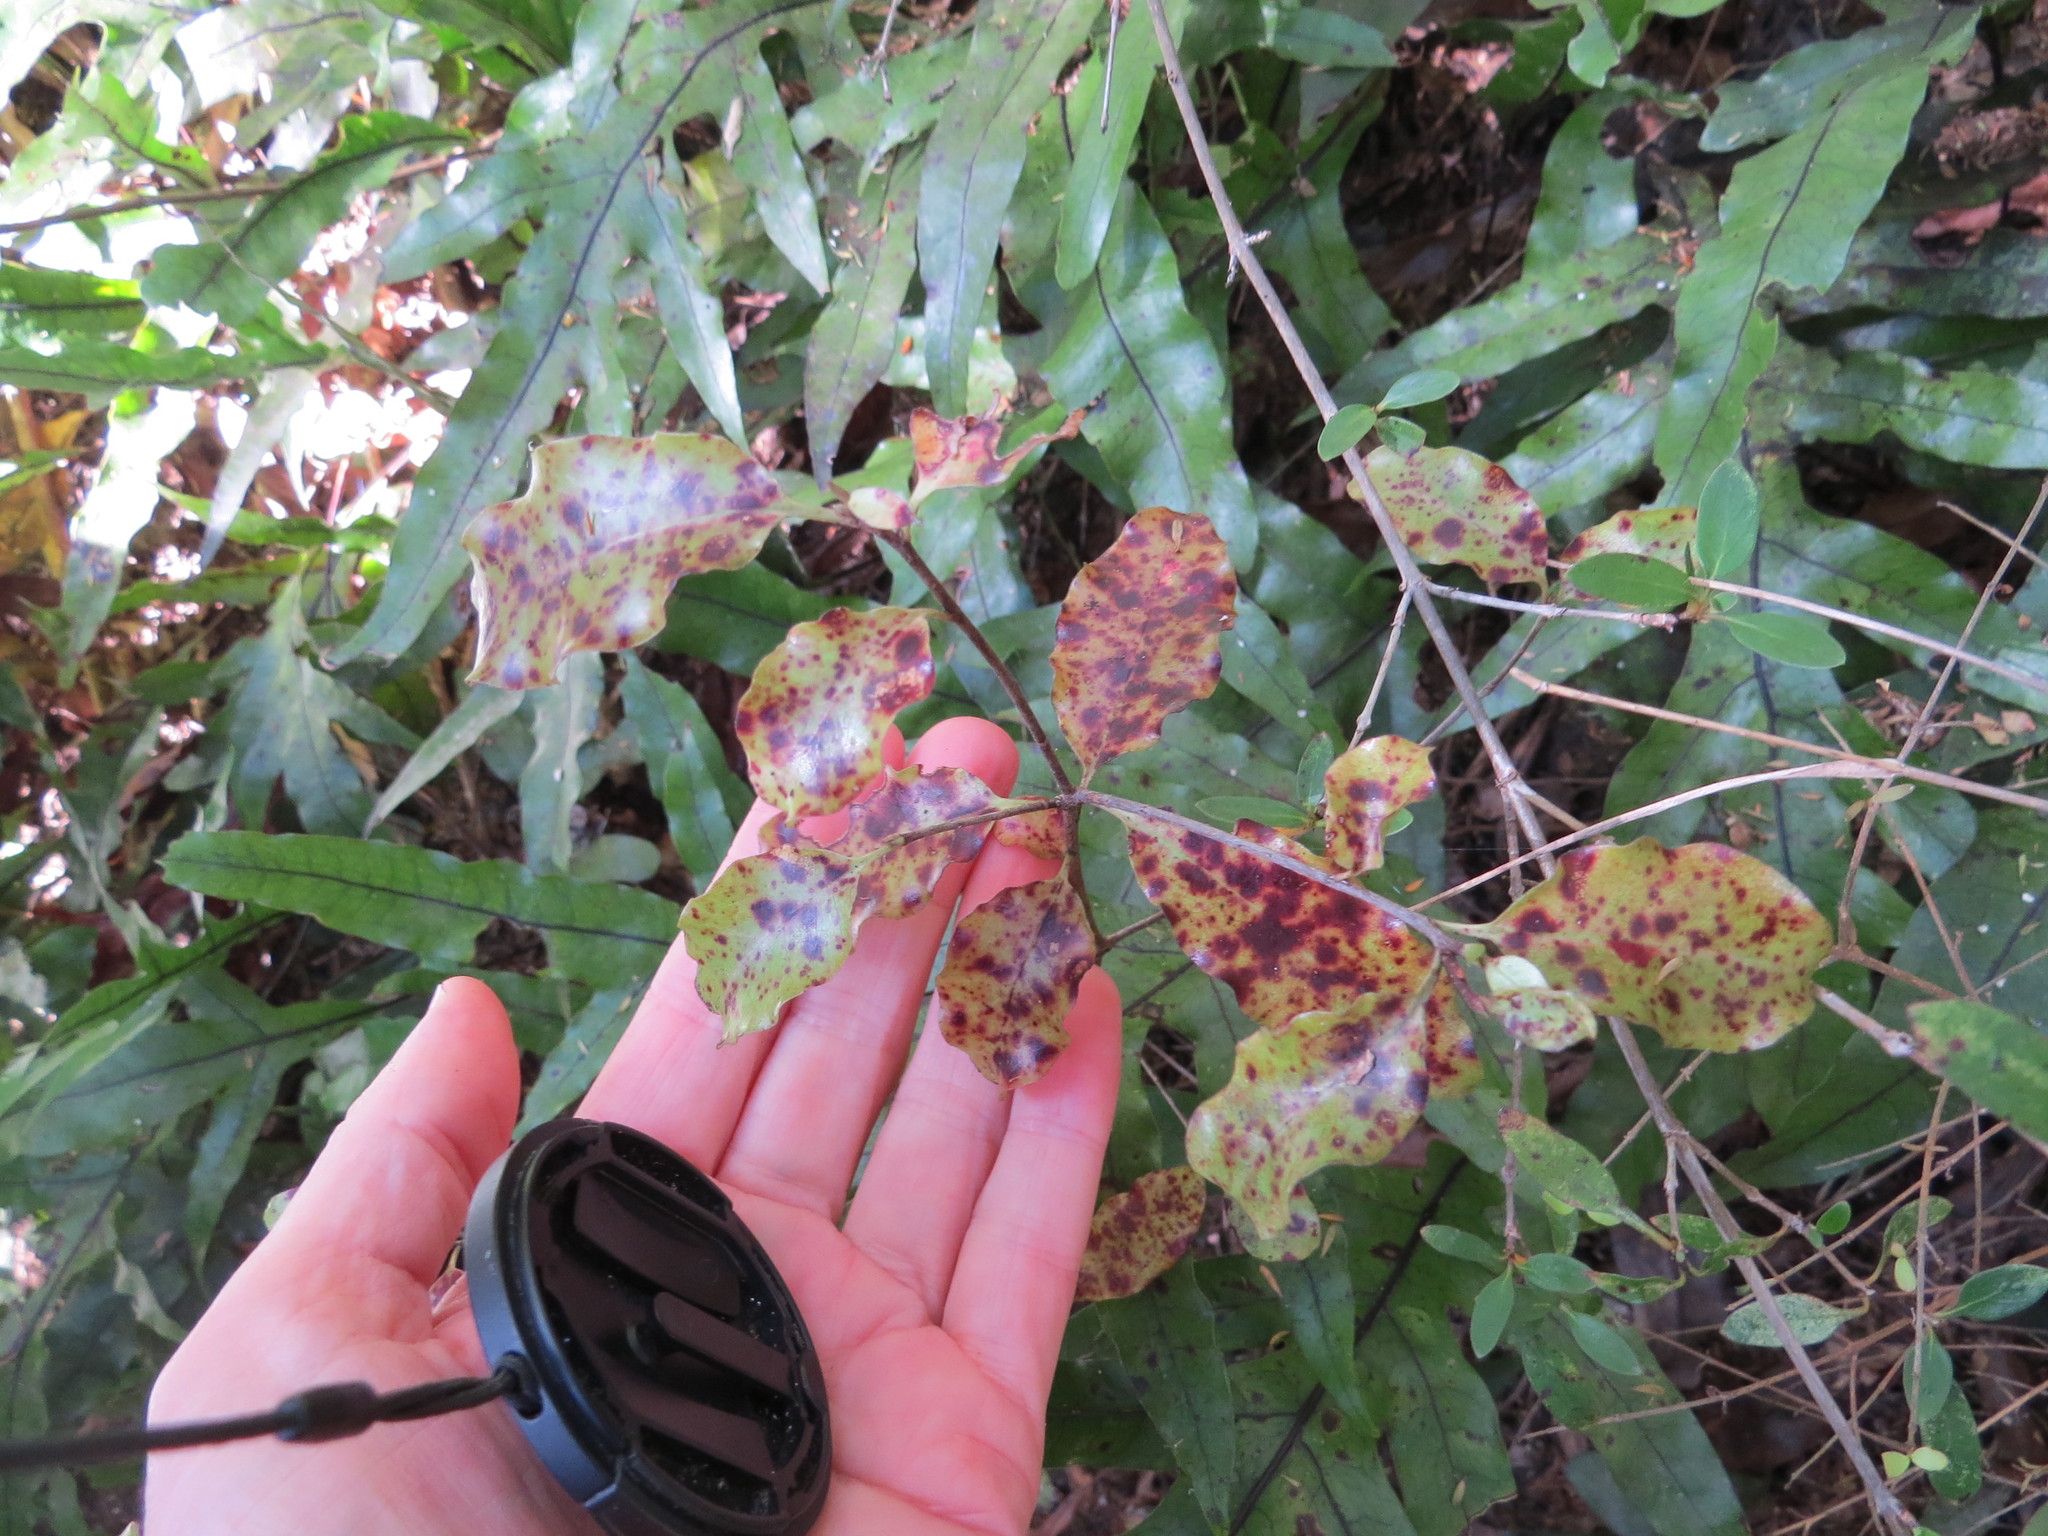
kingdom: Plantae
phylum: Tracheophyta
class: Polypodiopsida
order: Polypodiales
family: Polypodiaceae
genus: Lecanopteris
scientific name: Lecanopteris pustulata
